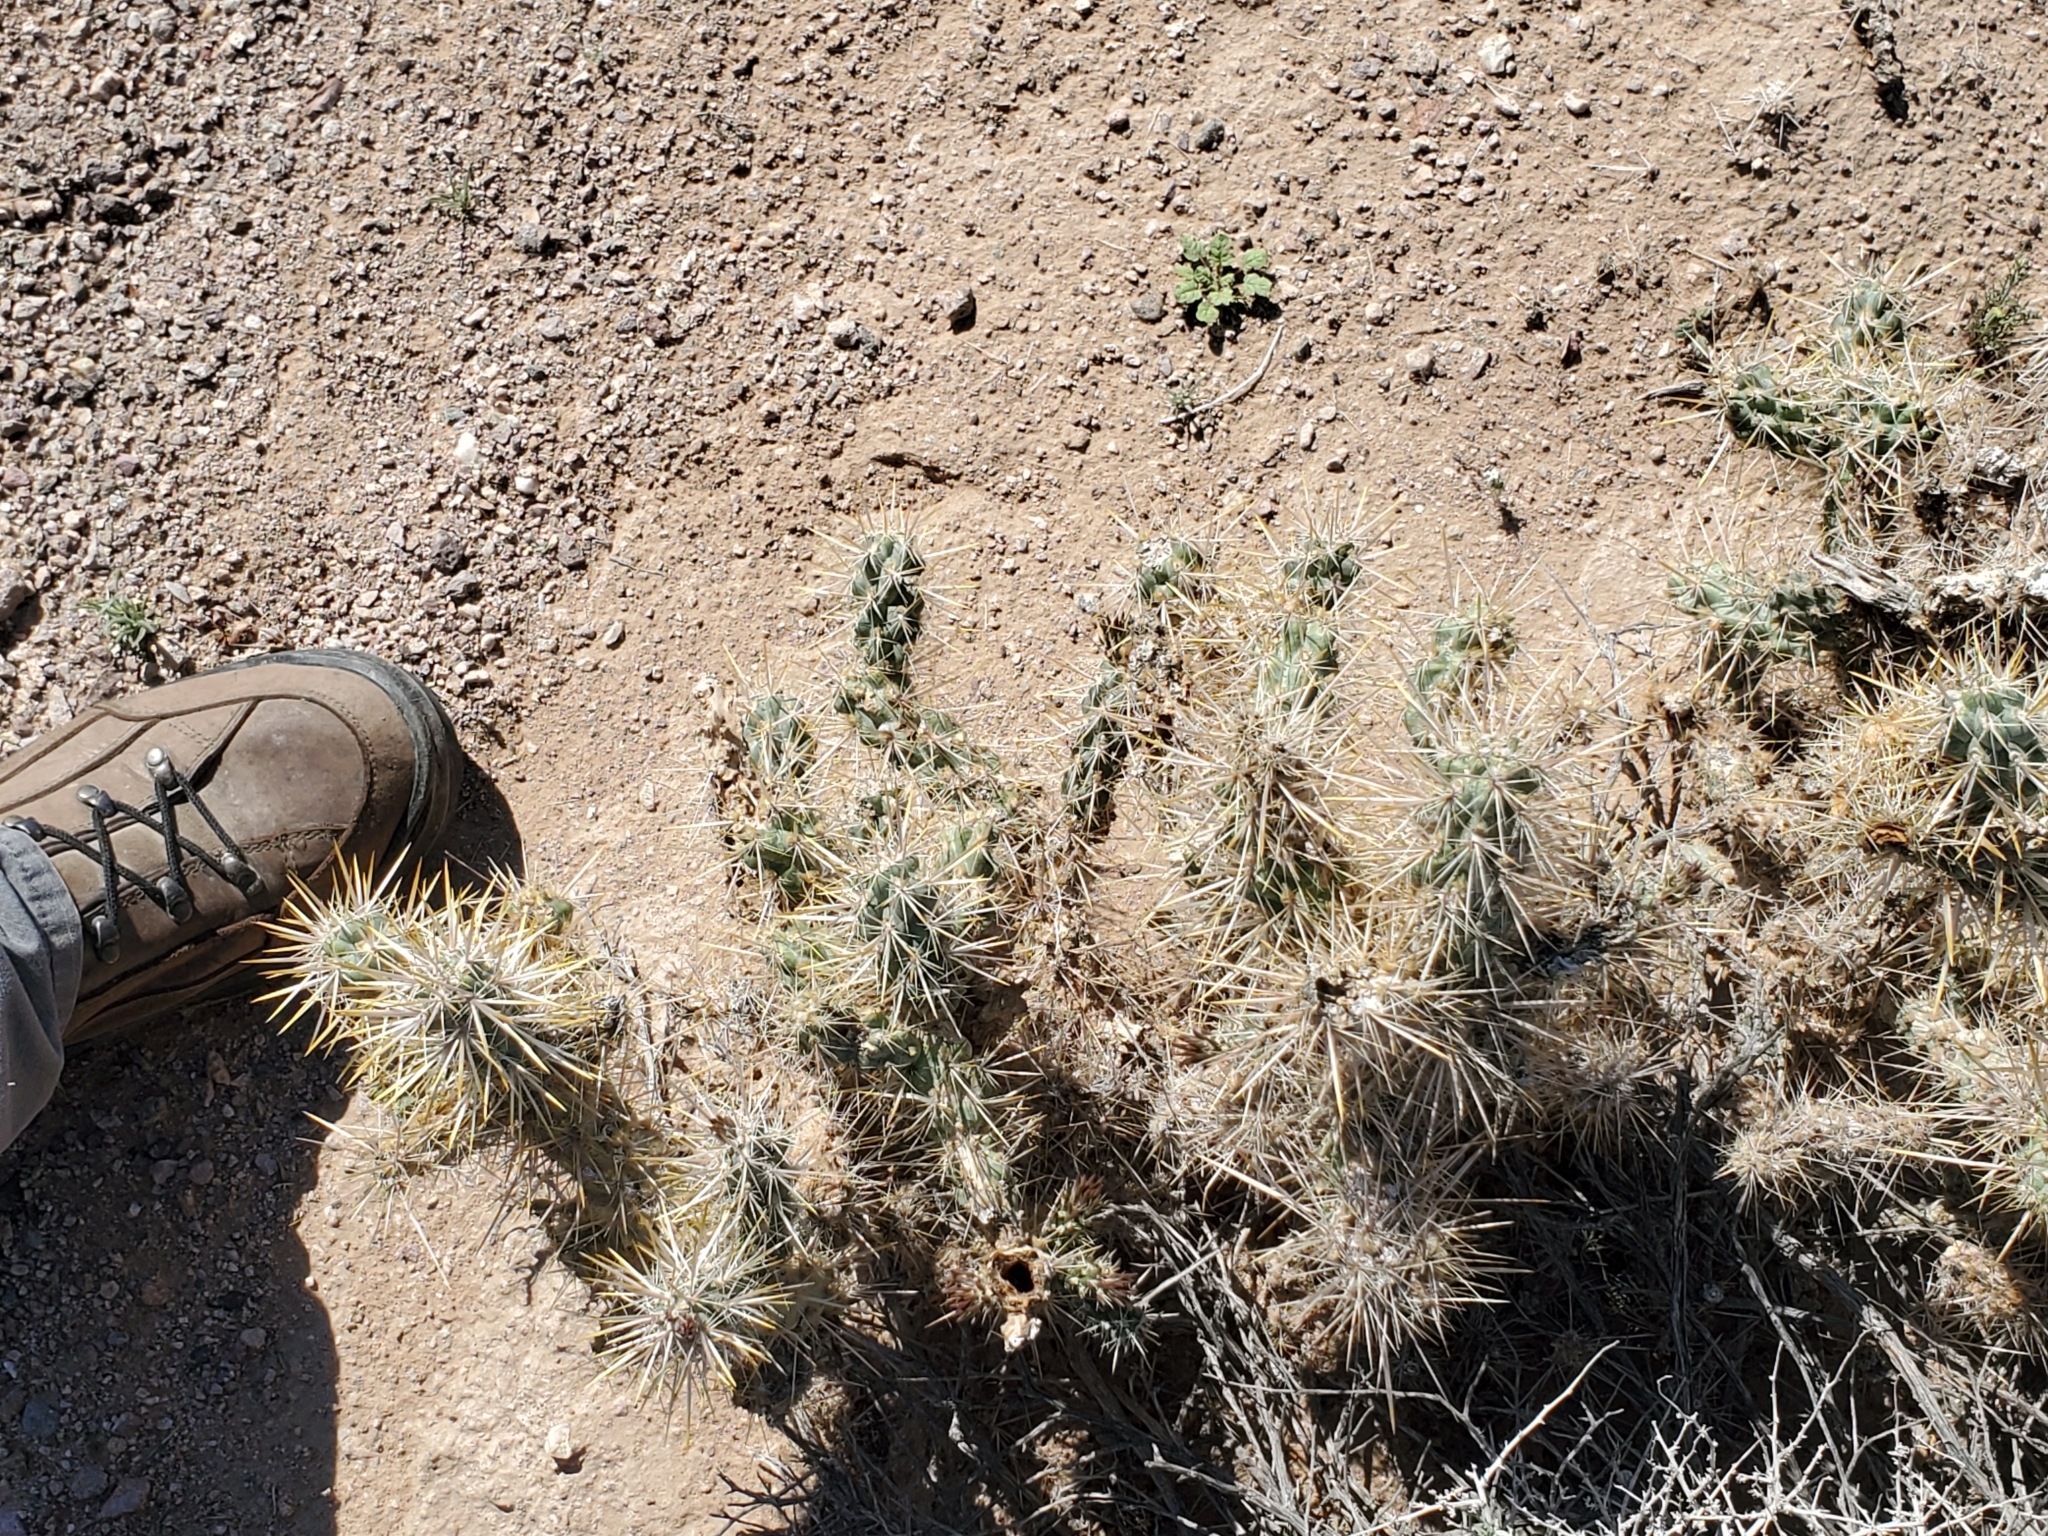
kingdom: Plantae
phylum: Tracheophyta
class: Magnoliopsida
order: Caryophyllales
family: Cactaceae
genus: Cylindropuntia
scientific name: Cylindropuntia echinocarpa
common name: Ground cholla
